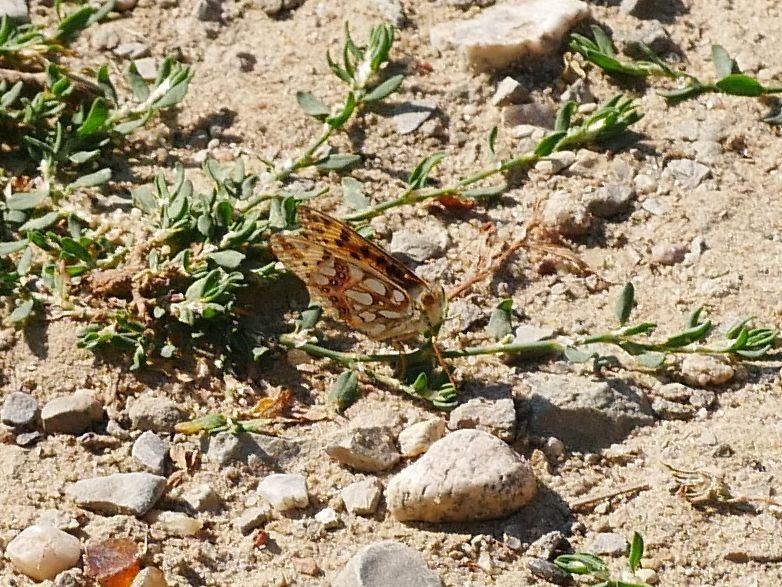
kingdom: Animalia
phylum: Arthropoda
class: Insecta
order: Lepidoptera
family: Nymphalidae
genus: Issoria
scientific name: Issoria lathonia
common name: Queen of spain fritillary
